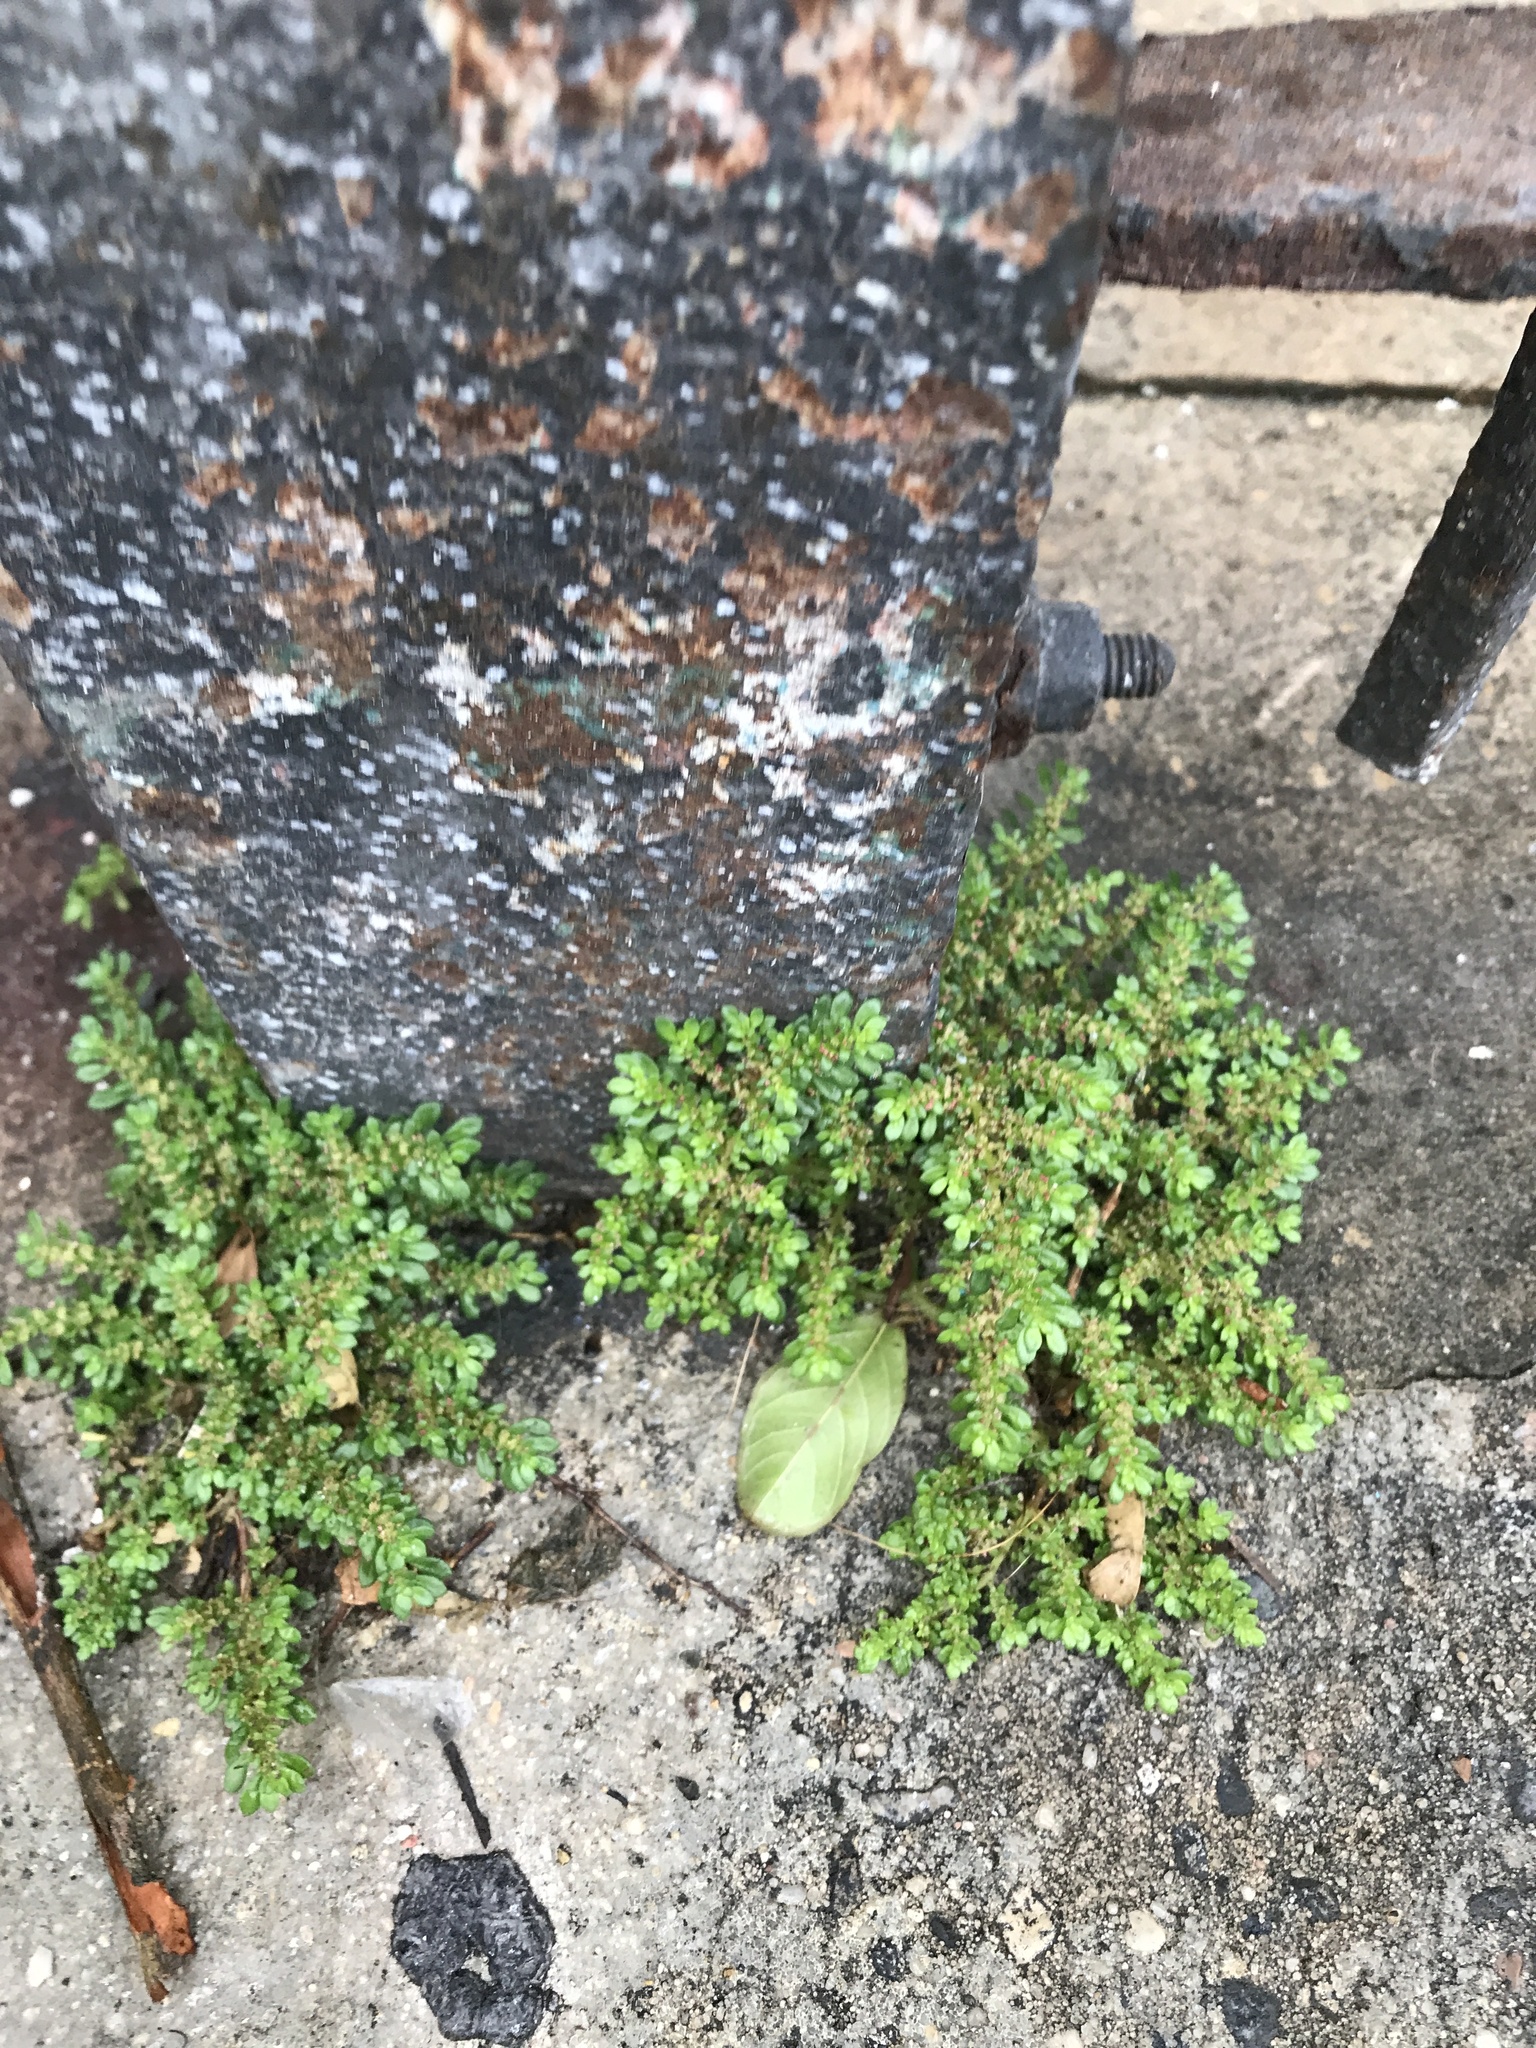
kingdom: Plantae
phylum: Tracheophyta
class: Magnoliopsida
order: Rosales
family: Urticaceae
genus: Pilea
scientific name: Pilea microphylla
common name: Artillery-plant
